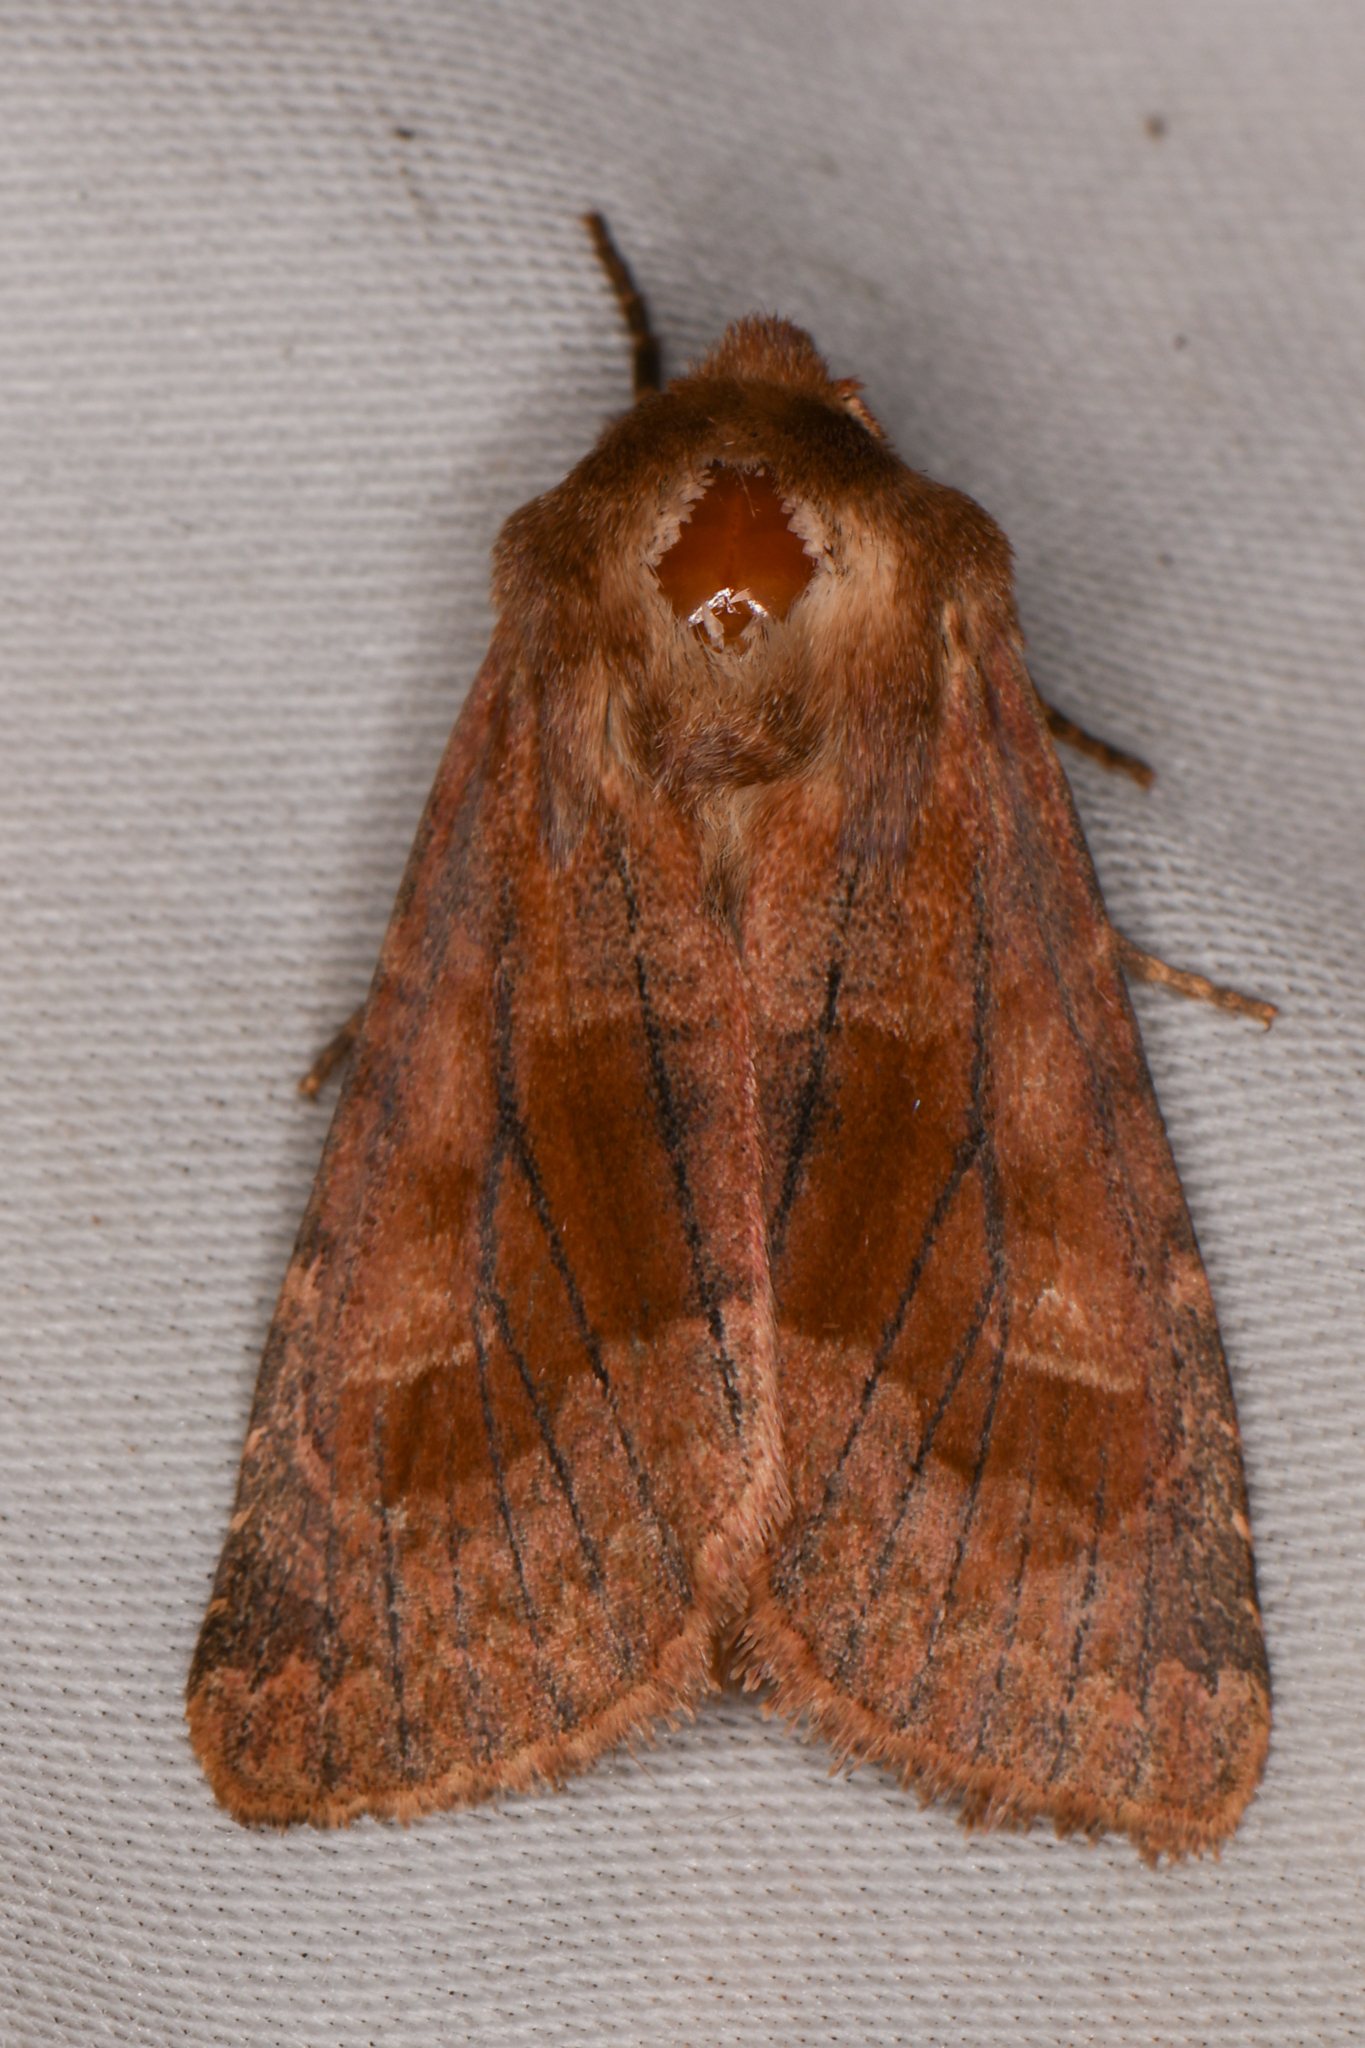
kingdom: Animalia
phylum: Arthropoda
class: Insecta
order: Lepidoptera
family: Noctuidae
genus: Nephelodes
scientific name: Nephelodes minians
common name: Bronzed cutworm
